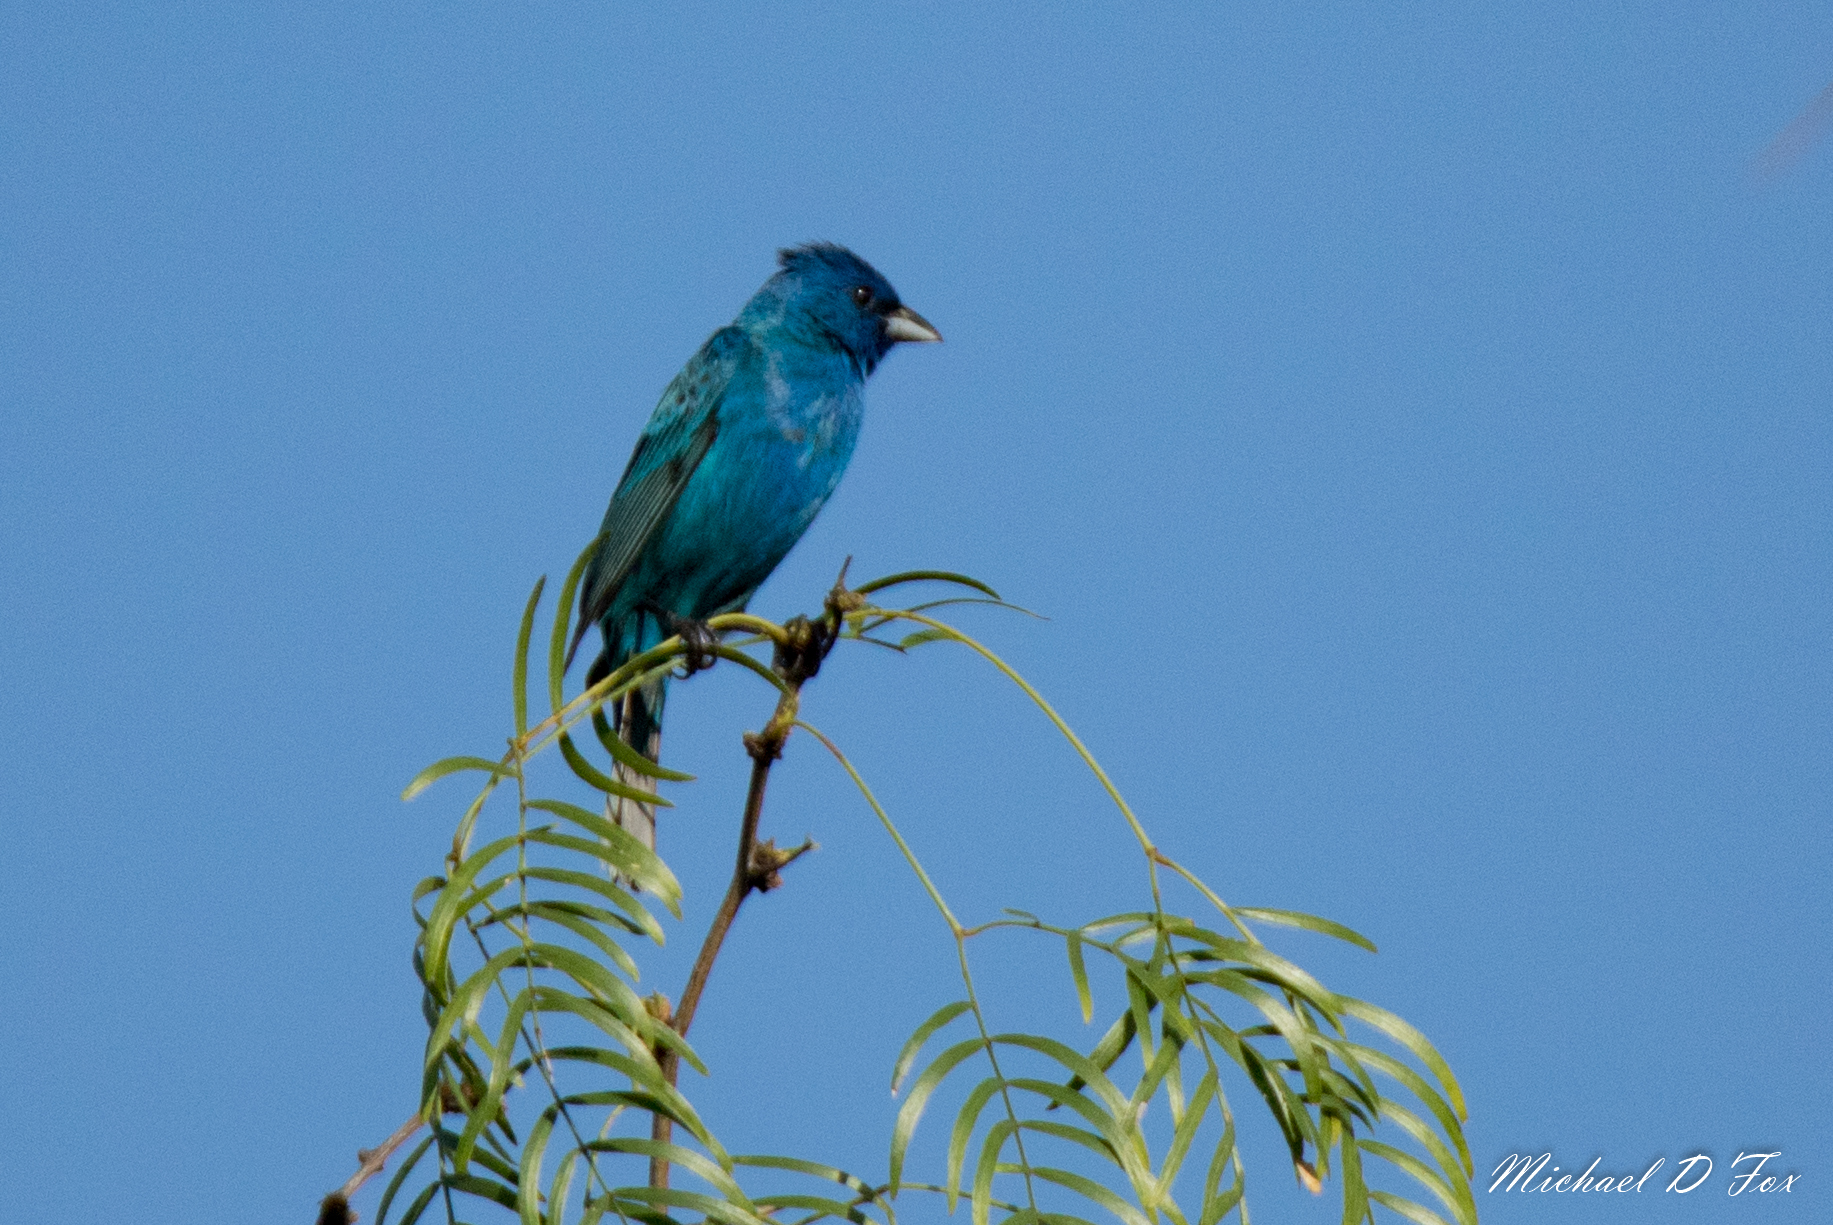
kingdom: Animalia
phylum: Chordata
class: Aves
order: Passeriformes
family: Cardinalidae
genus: Passerina
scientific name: Passerina cyanea
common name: Indigo bunting
